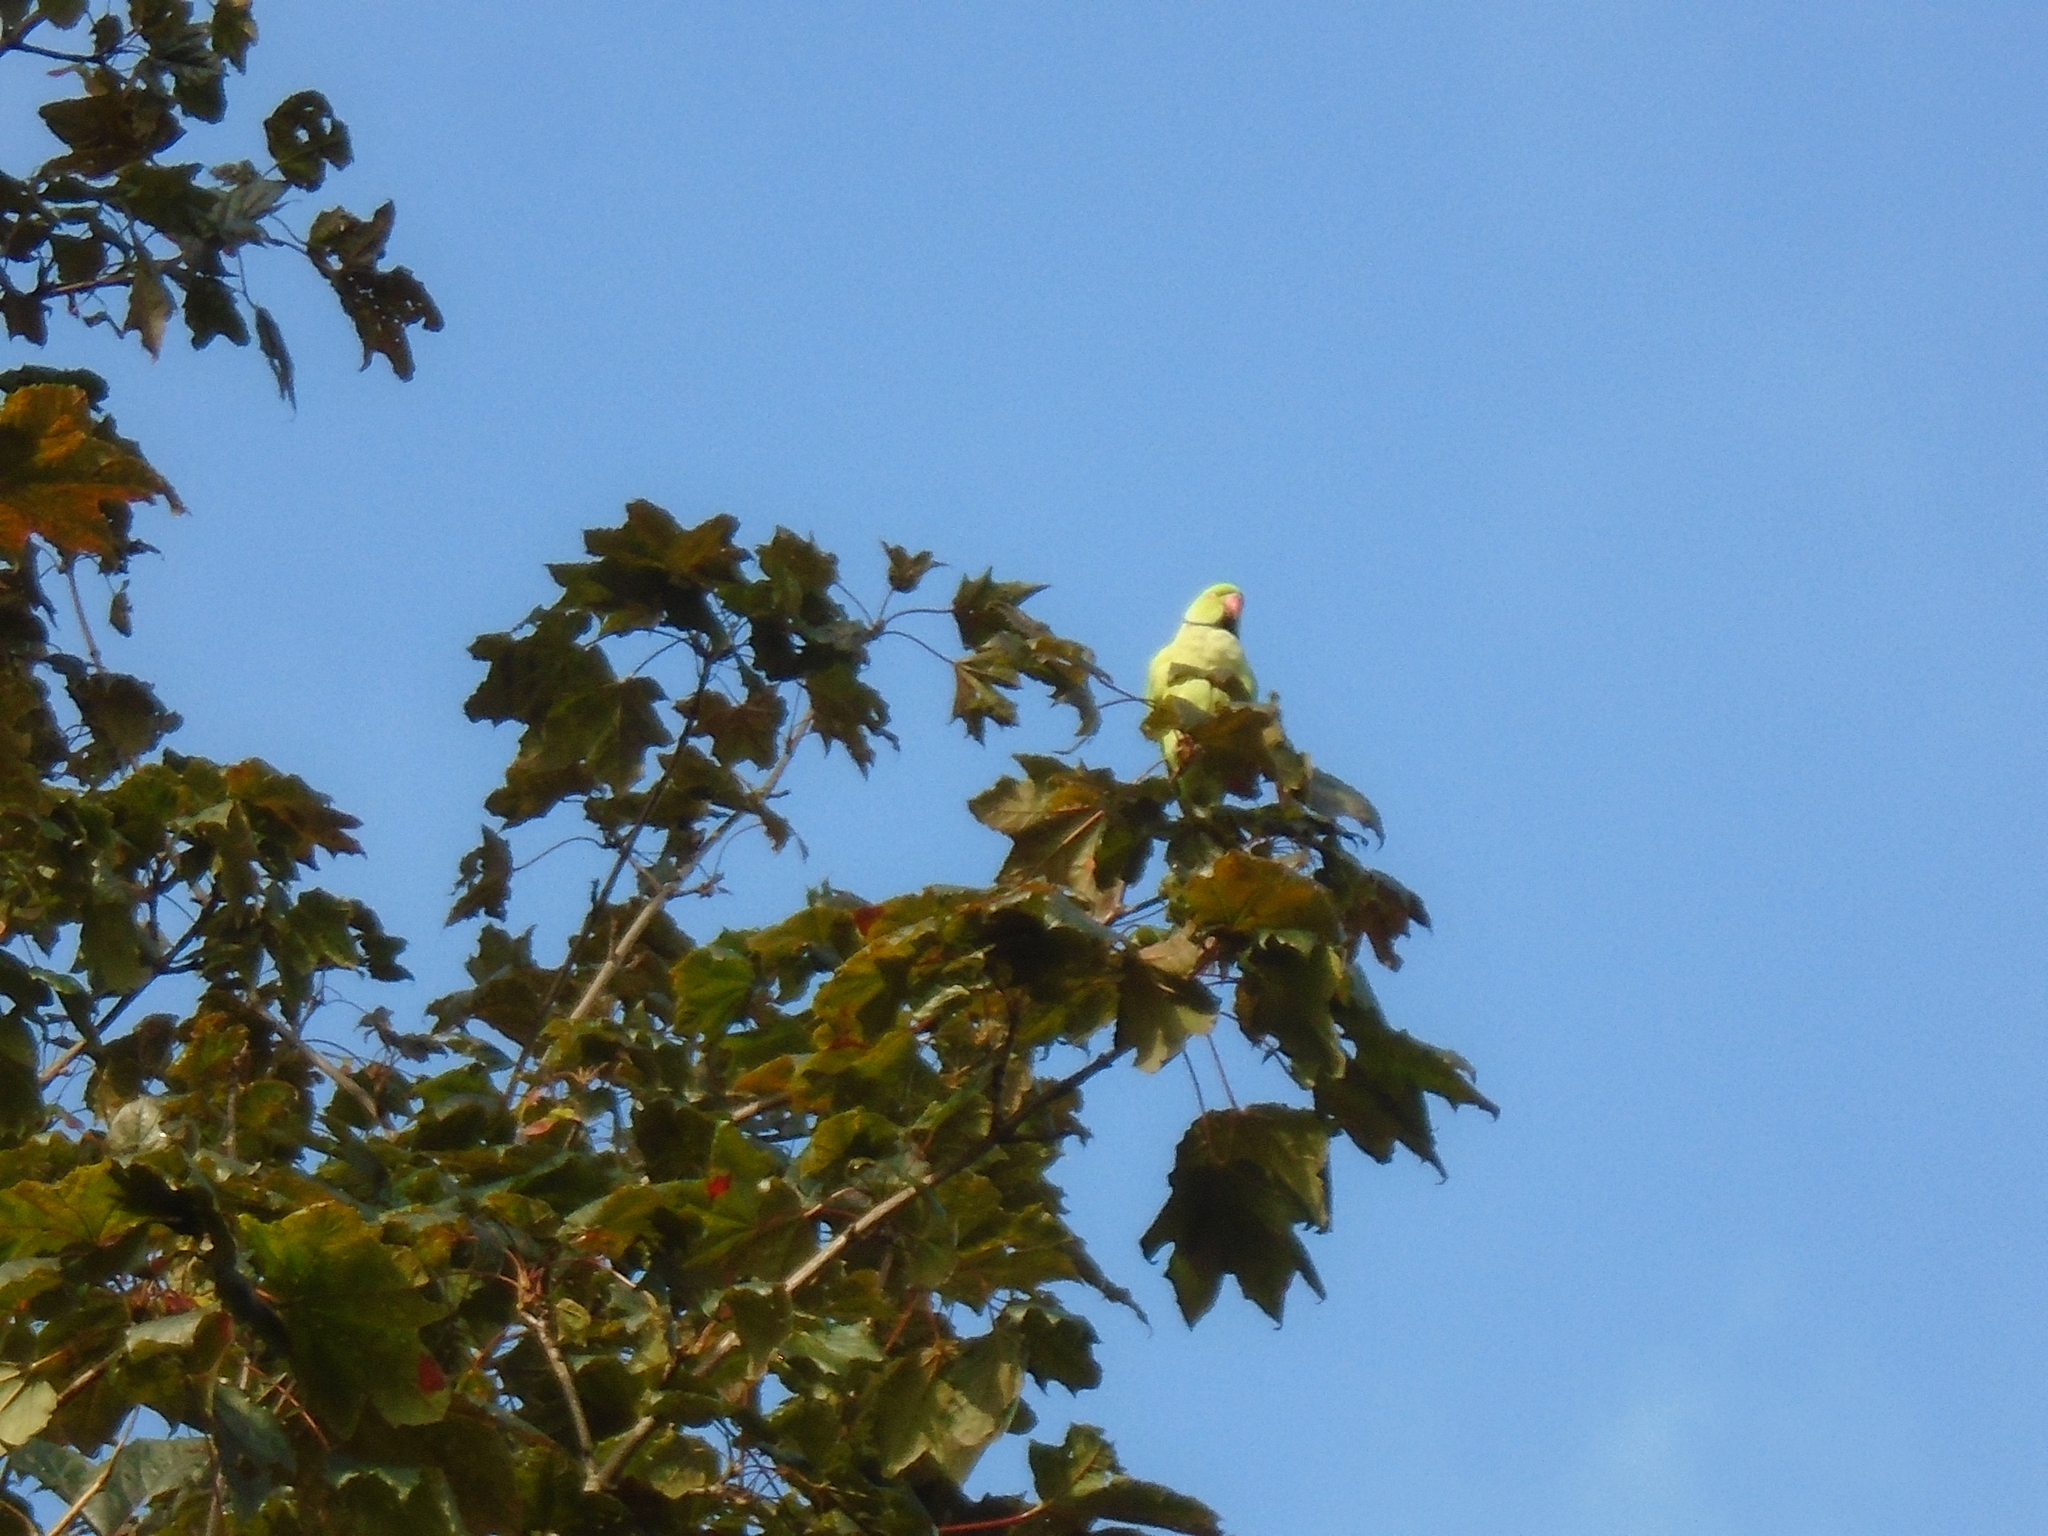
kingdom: Animalia
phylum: Chordata
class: Aves
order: Psittaciformes
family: Psittacidae
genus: Psittacula
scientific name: Psittacula krameri
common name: Rose-ringed parakeet
